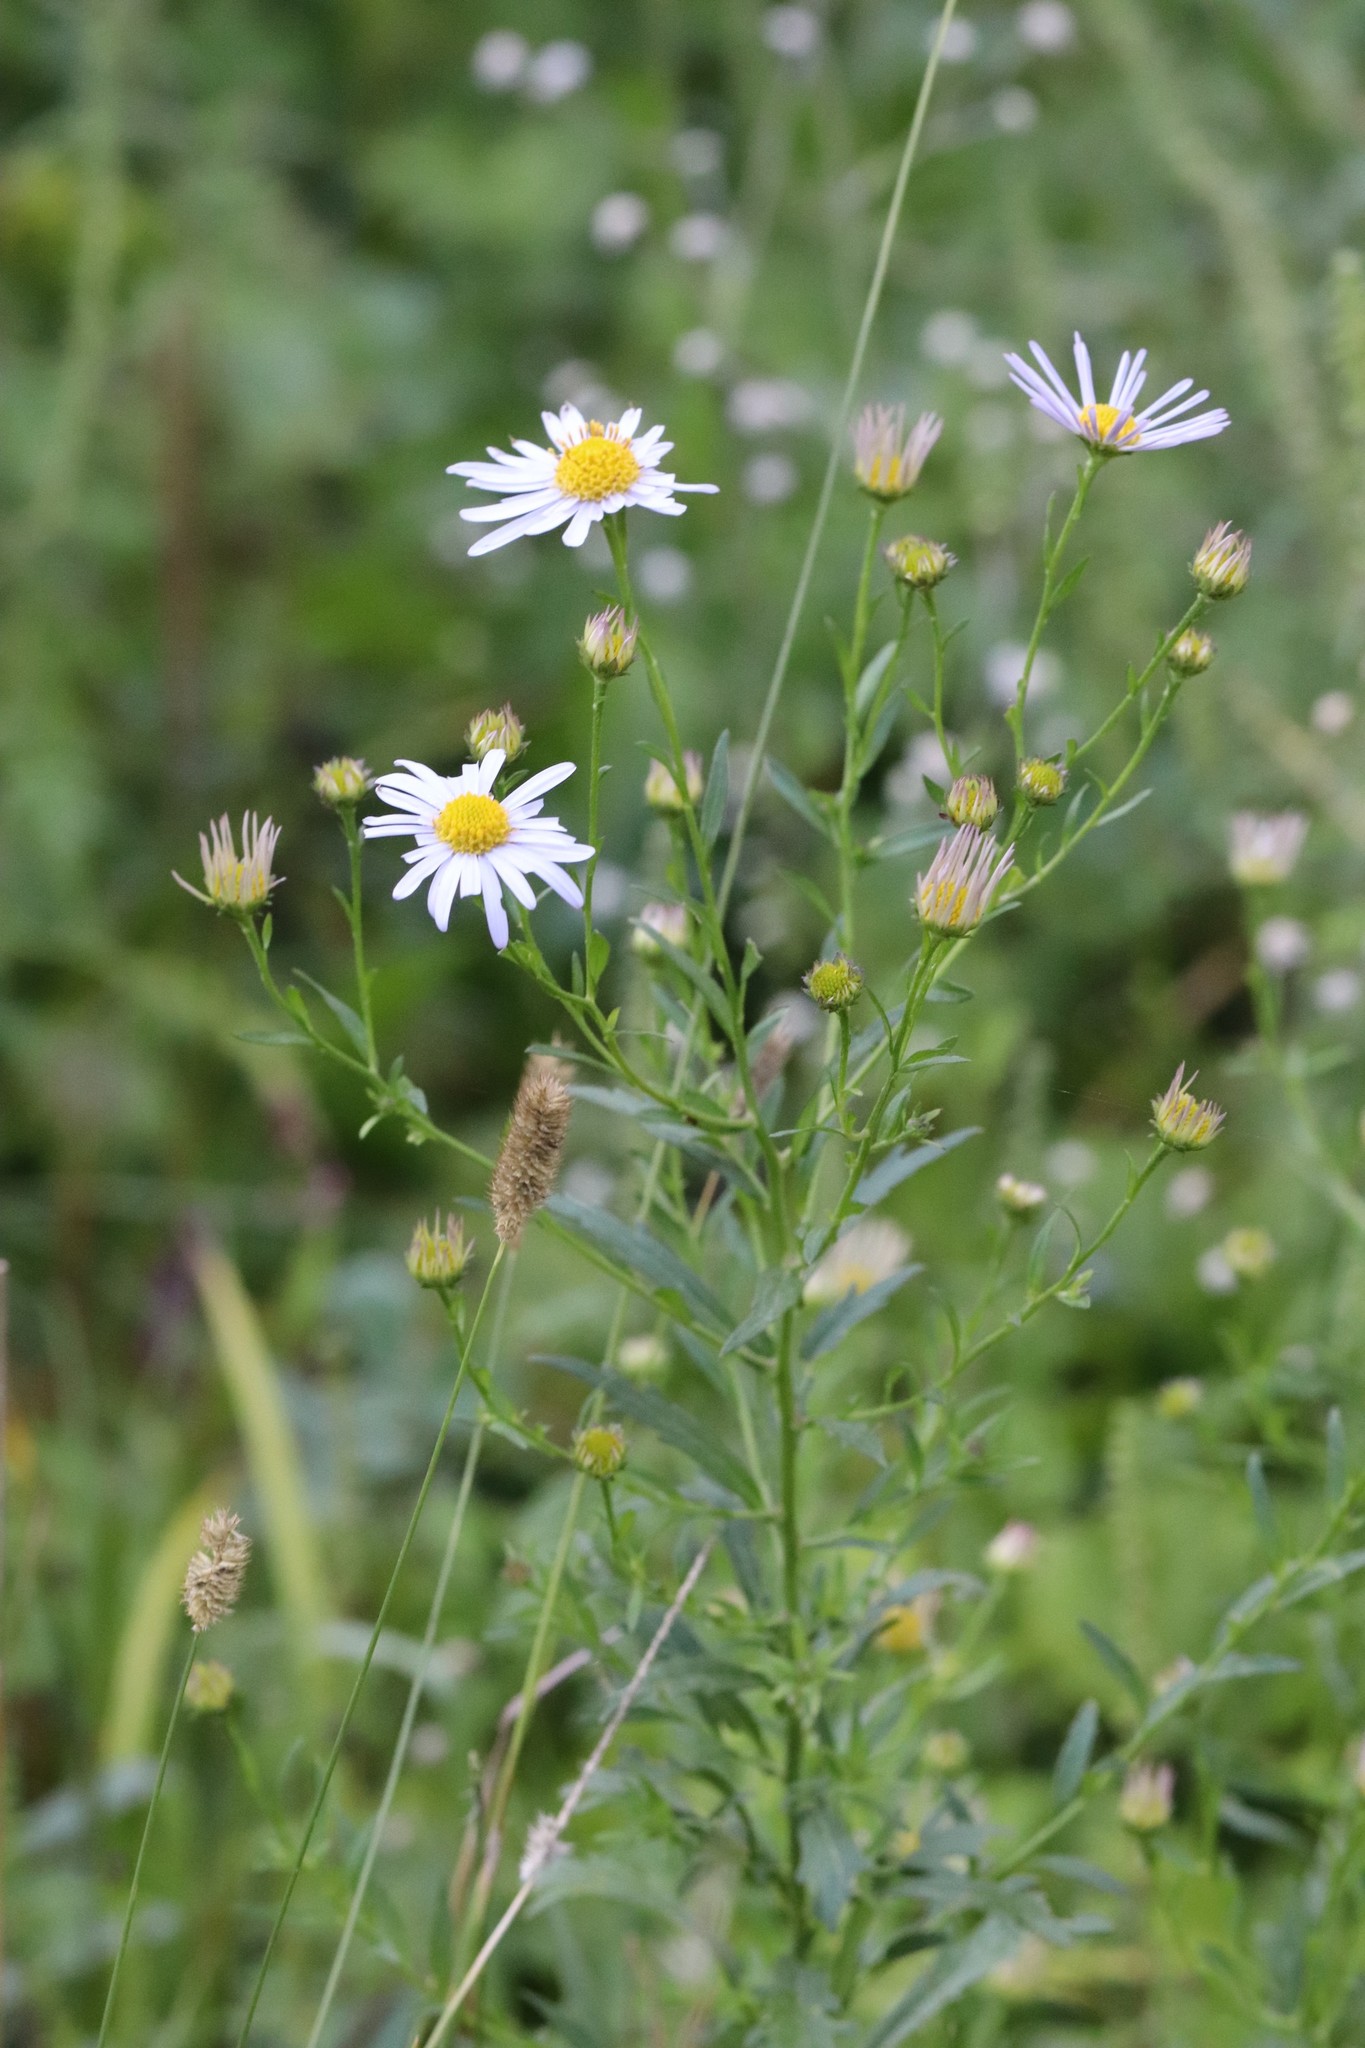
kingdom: Plantae
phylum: Tracheophyta
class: Magnoliopsida
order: Asterales
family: Asteraceae
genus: Kalimeris
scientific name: Kalimeris incisa
